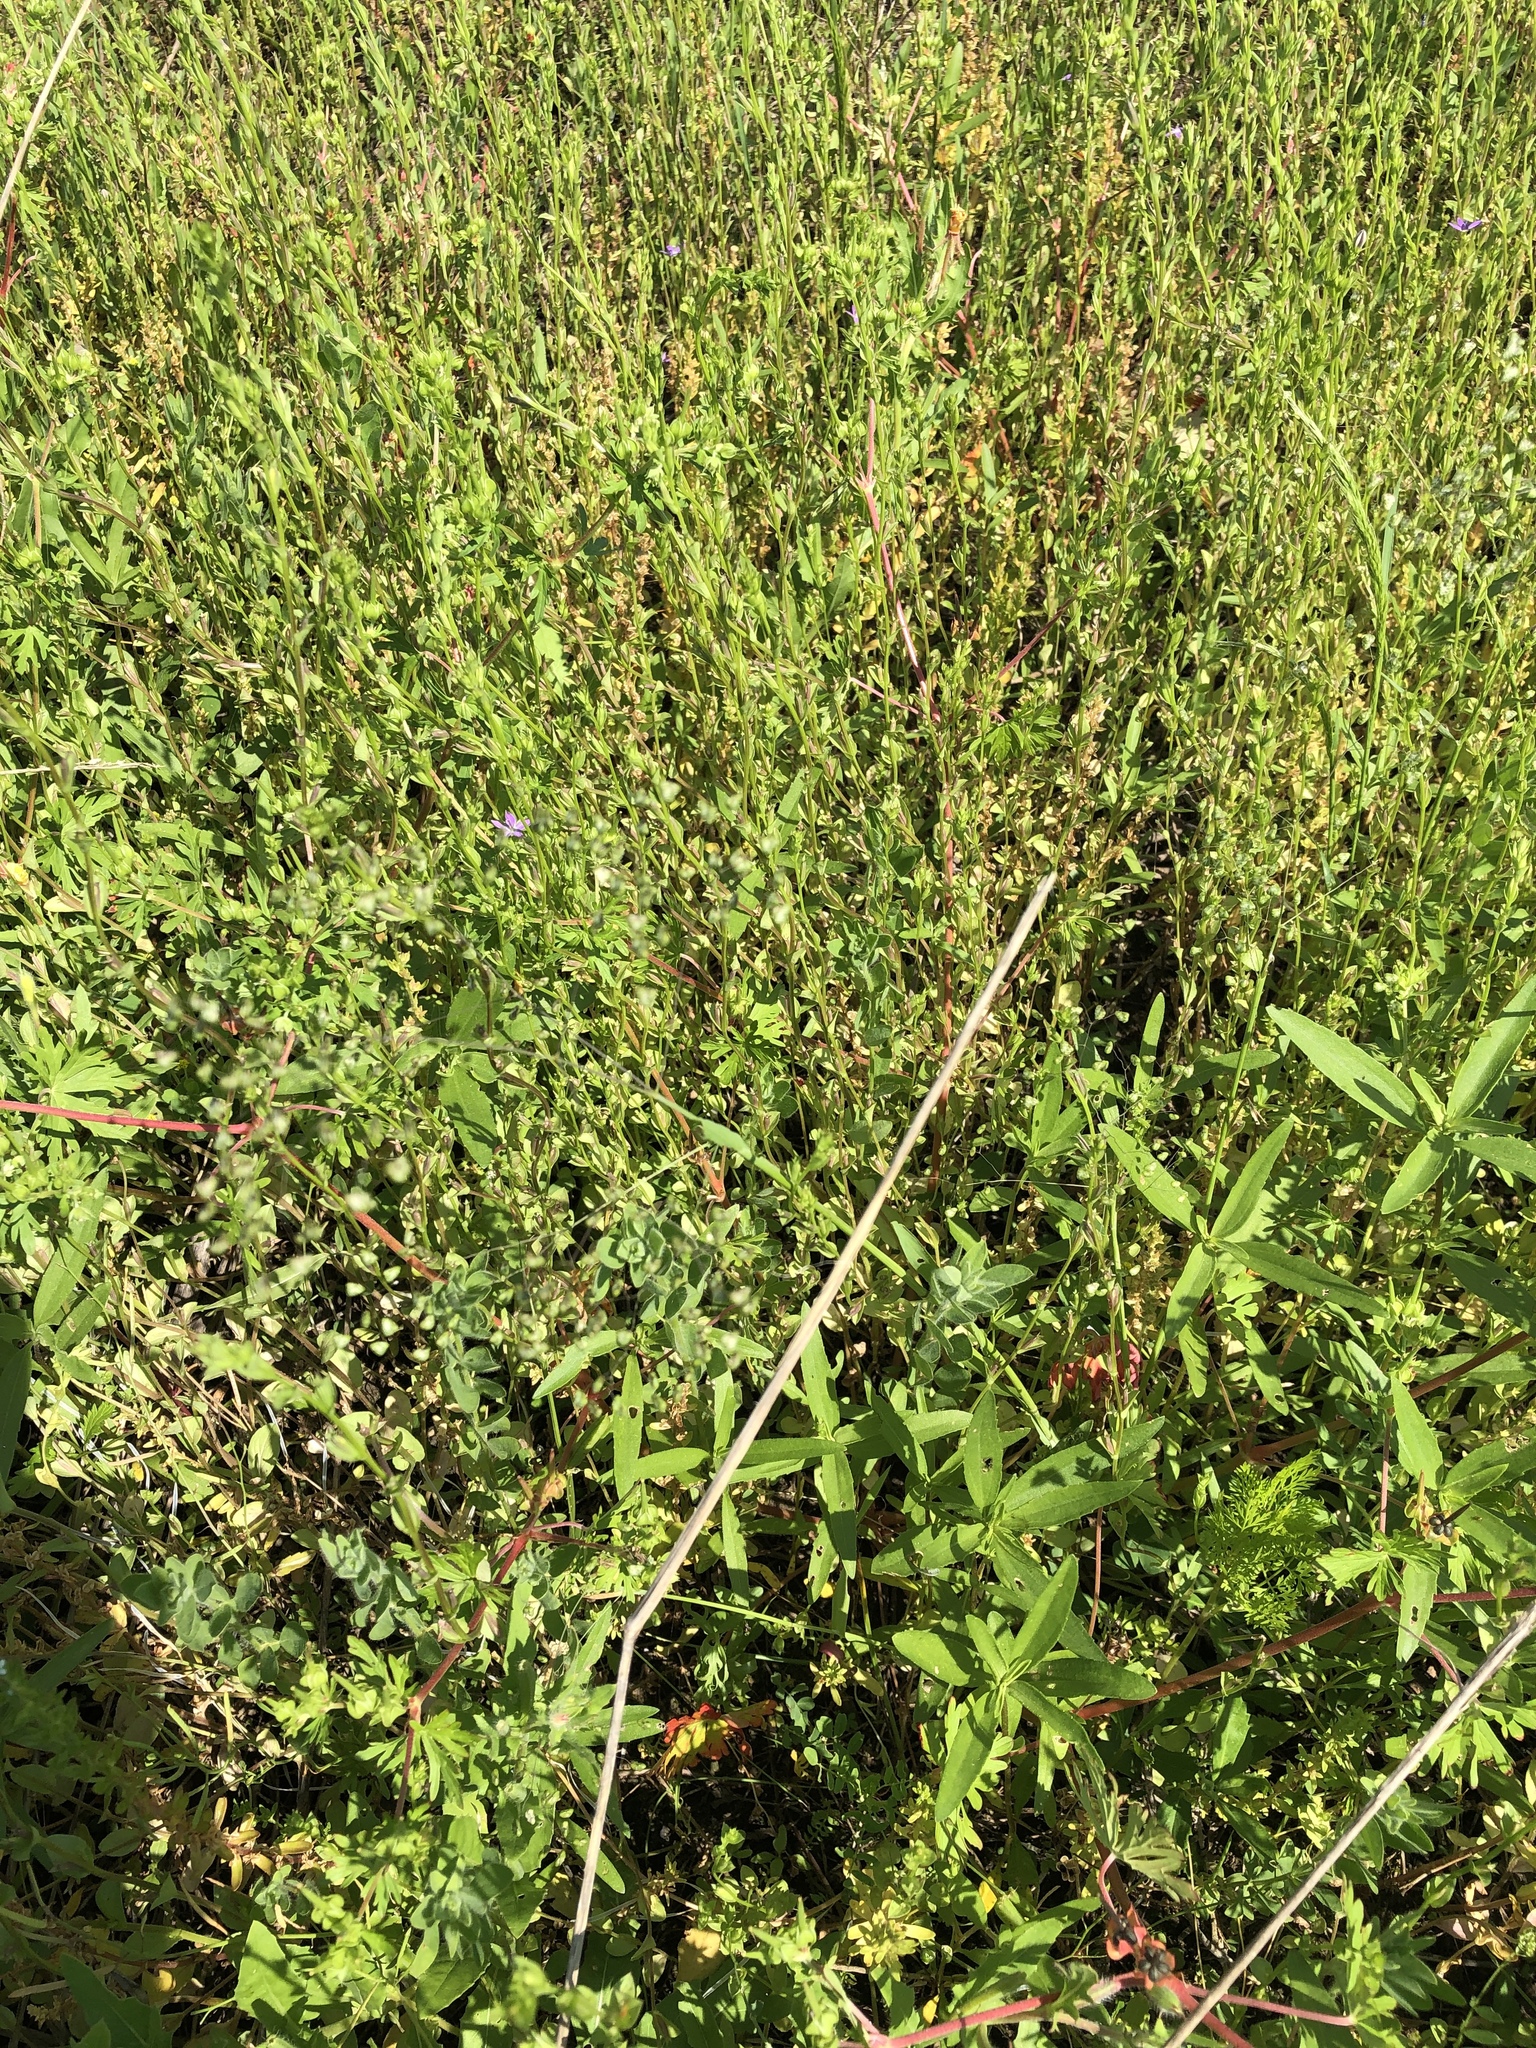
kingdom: Plantae
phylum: Tracheophyta
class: Liliopsida
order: Poales
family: Poaceae
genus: Briza
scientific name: Briza minor
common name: Lesser quaking-grass
